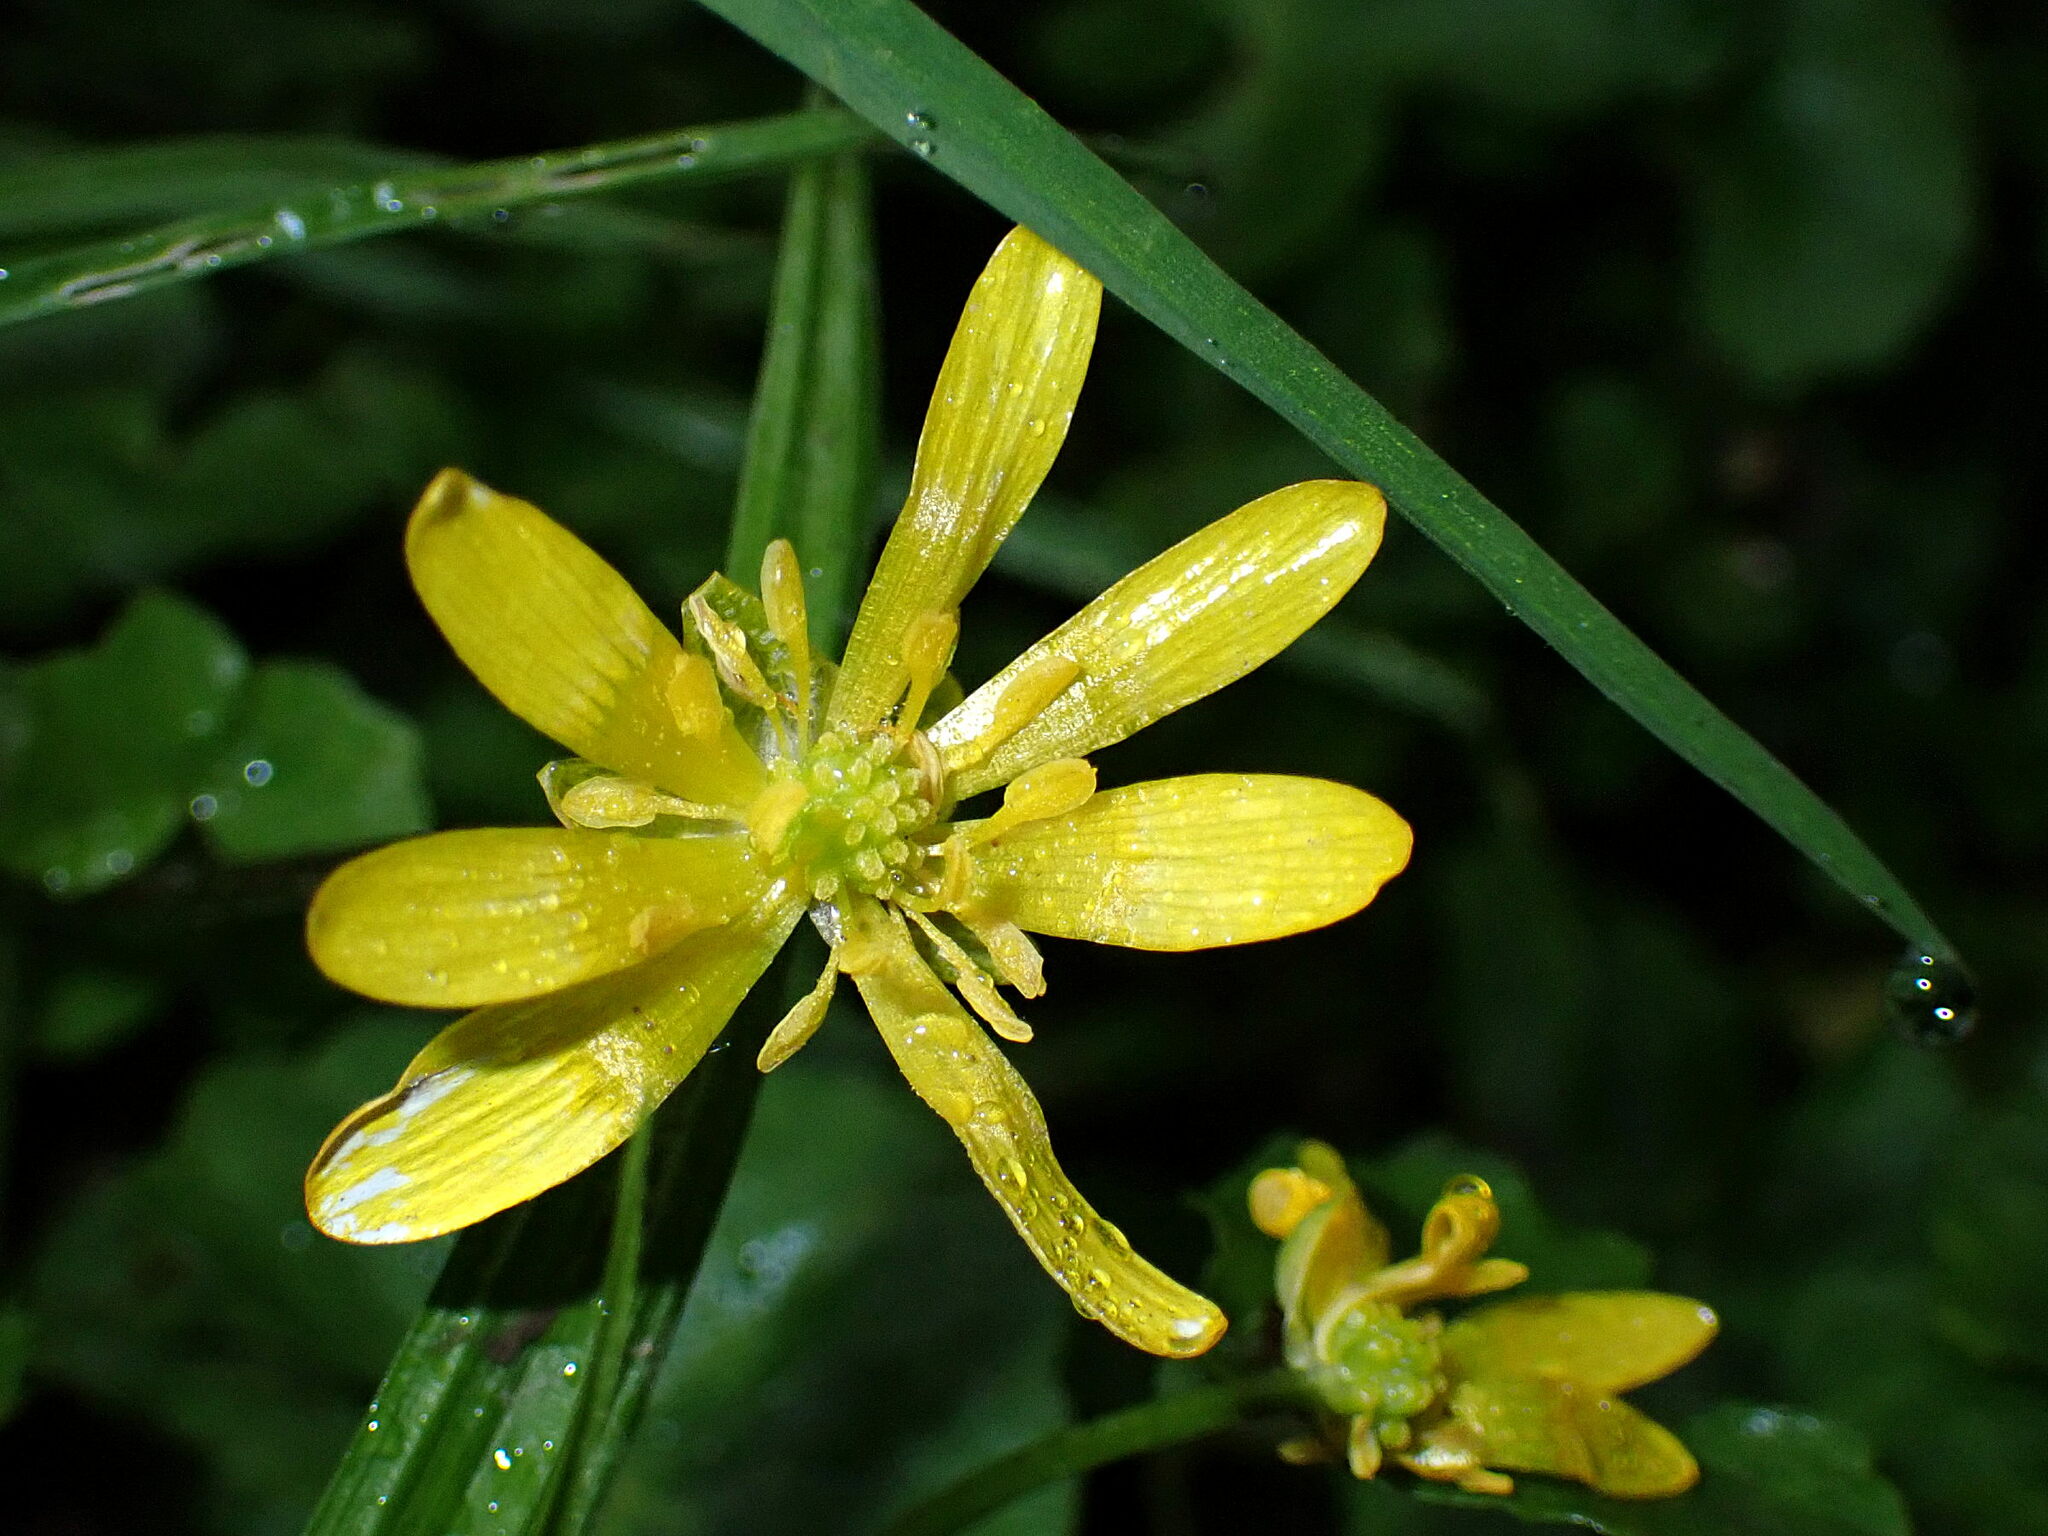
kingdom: Plantae
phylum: Tracheophyta
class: Magnoliopsida
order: Ranunculales
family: Ranunculaceae
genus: Ficaria
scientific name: Ficaria verna
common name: Lesser celandine
